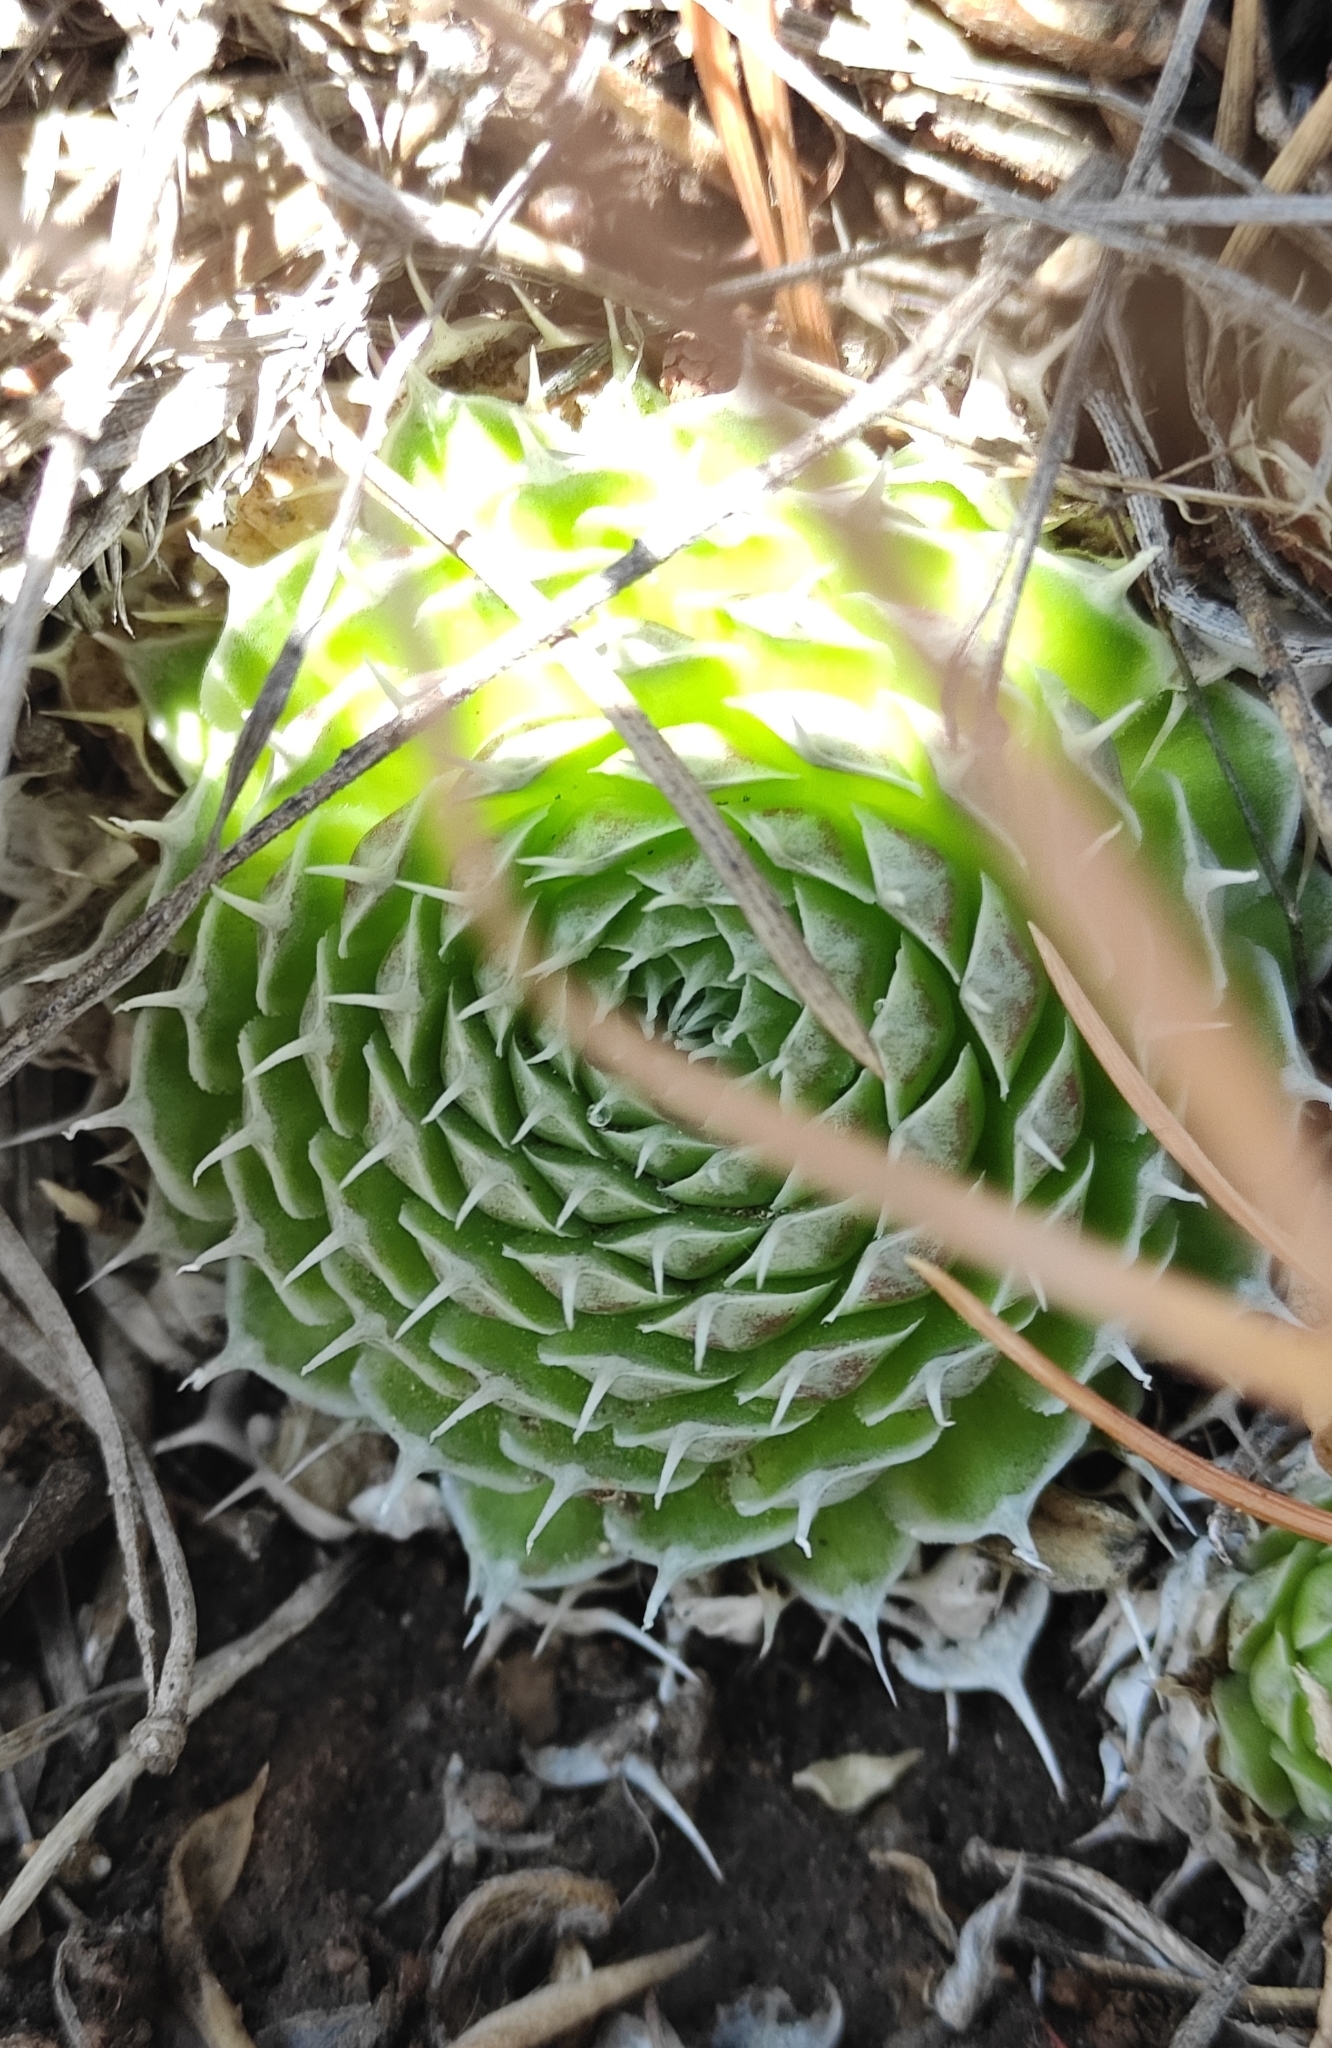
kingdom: Plantae
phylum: Tracheophyta
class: Magnoliopsida
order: Saxifragales
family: Crassulaceae
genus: Orostachys
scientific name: Orostachys spinosa
